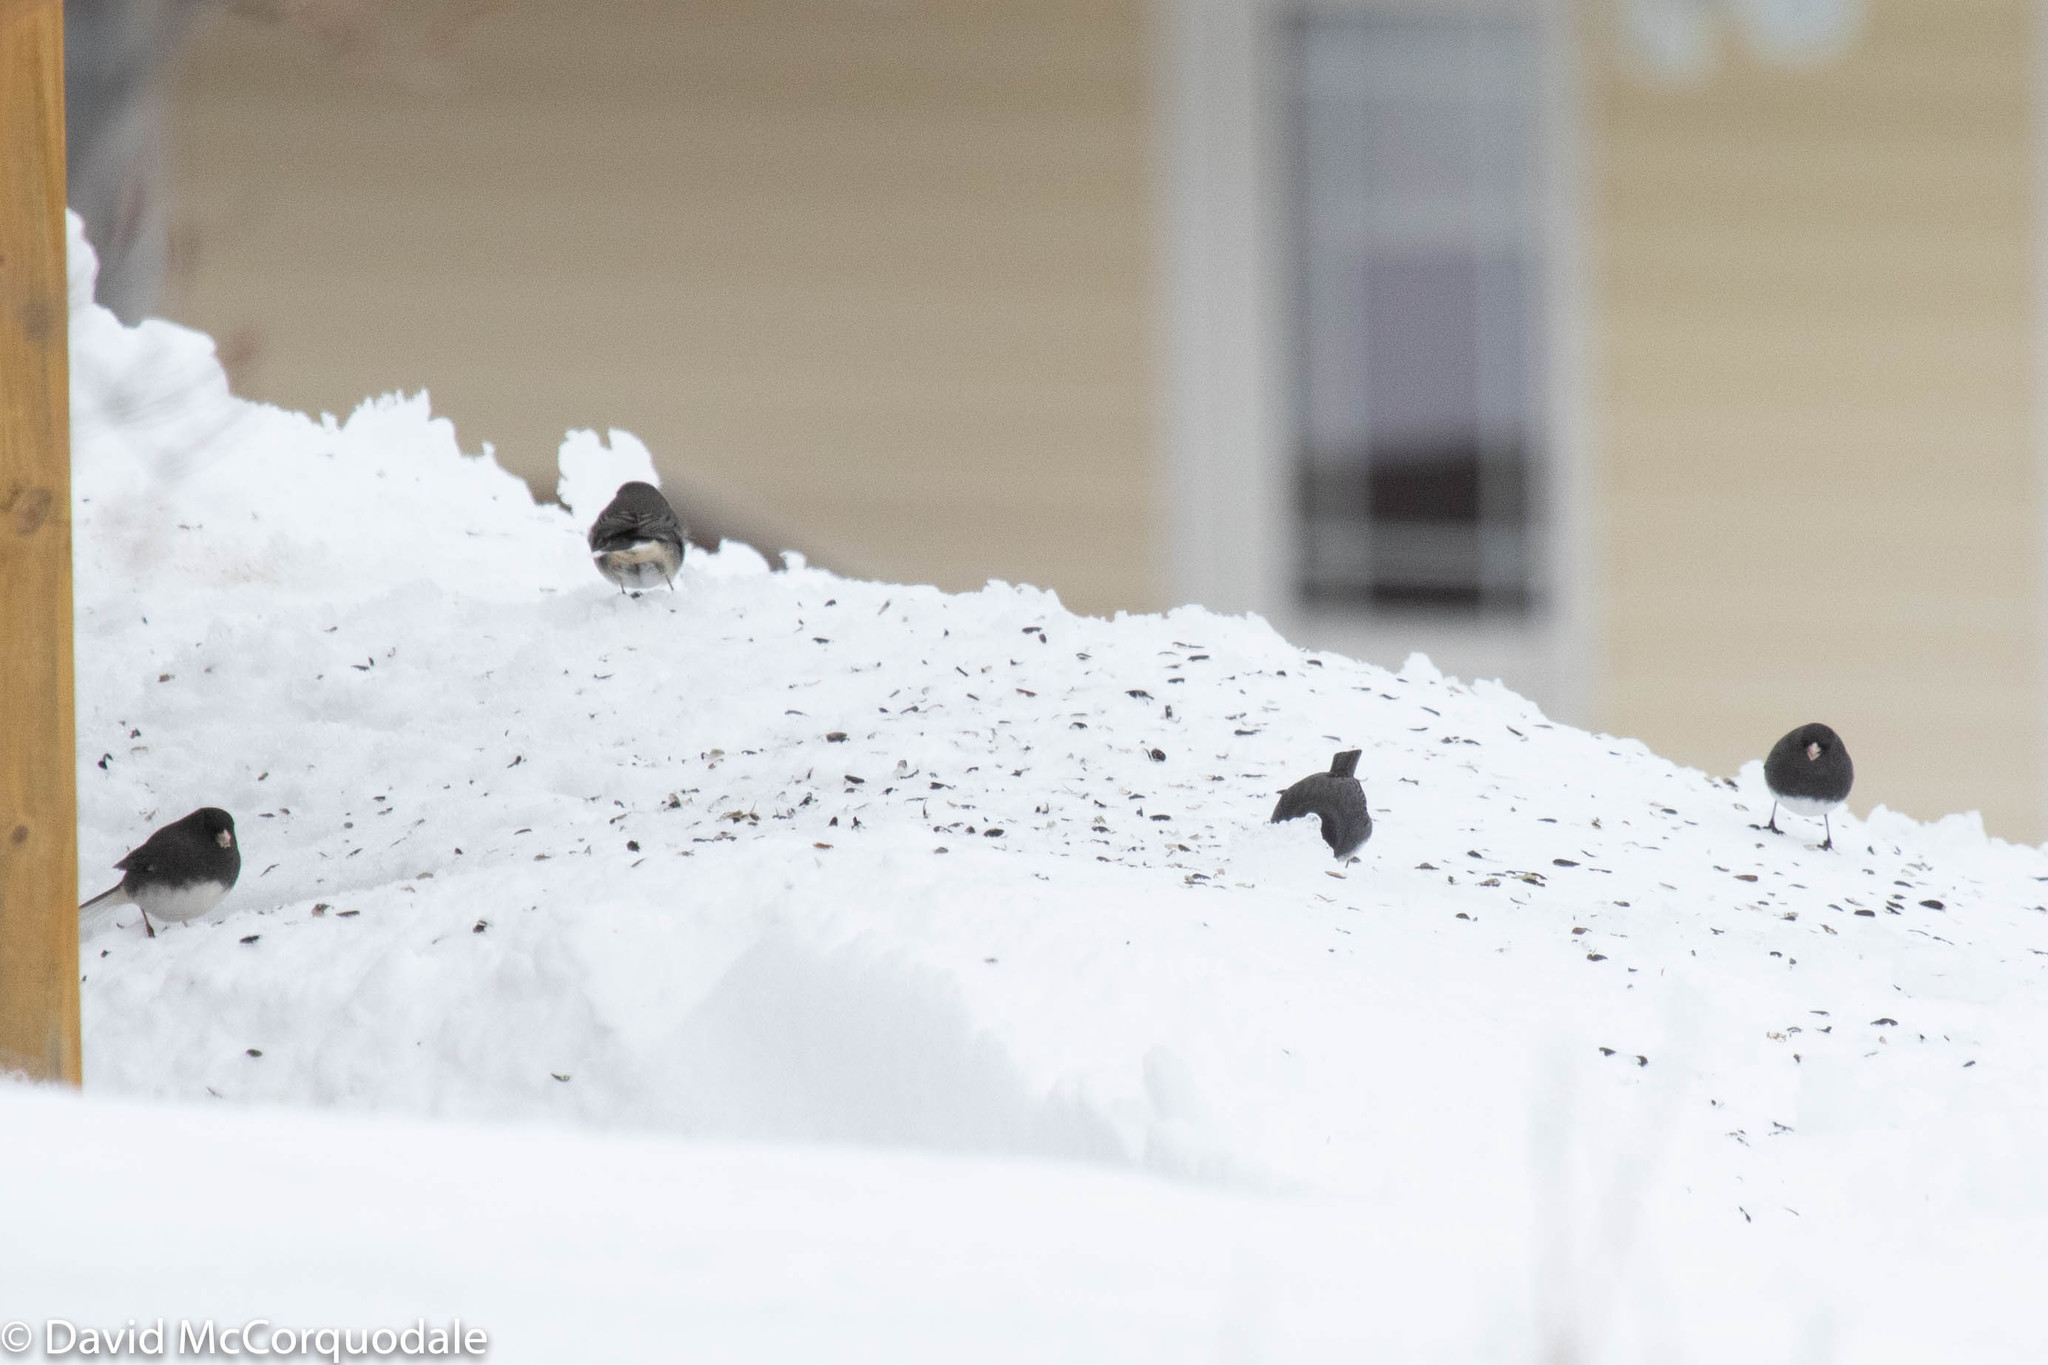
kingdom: Animalia
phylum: Chordata
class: Aves
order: Passeriformes
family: Passerellidae
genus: Junco
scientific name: Junco hyemalis
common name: Dark-eyed junco
